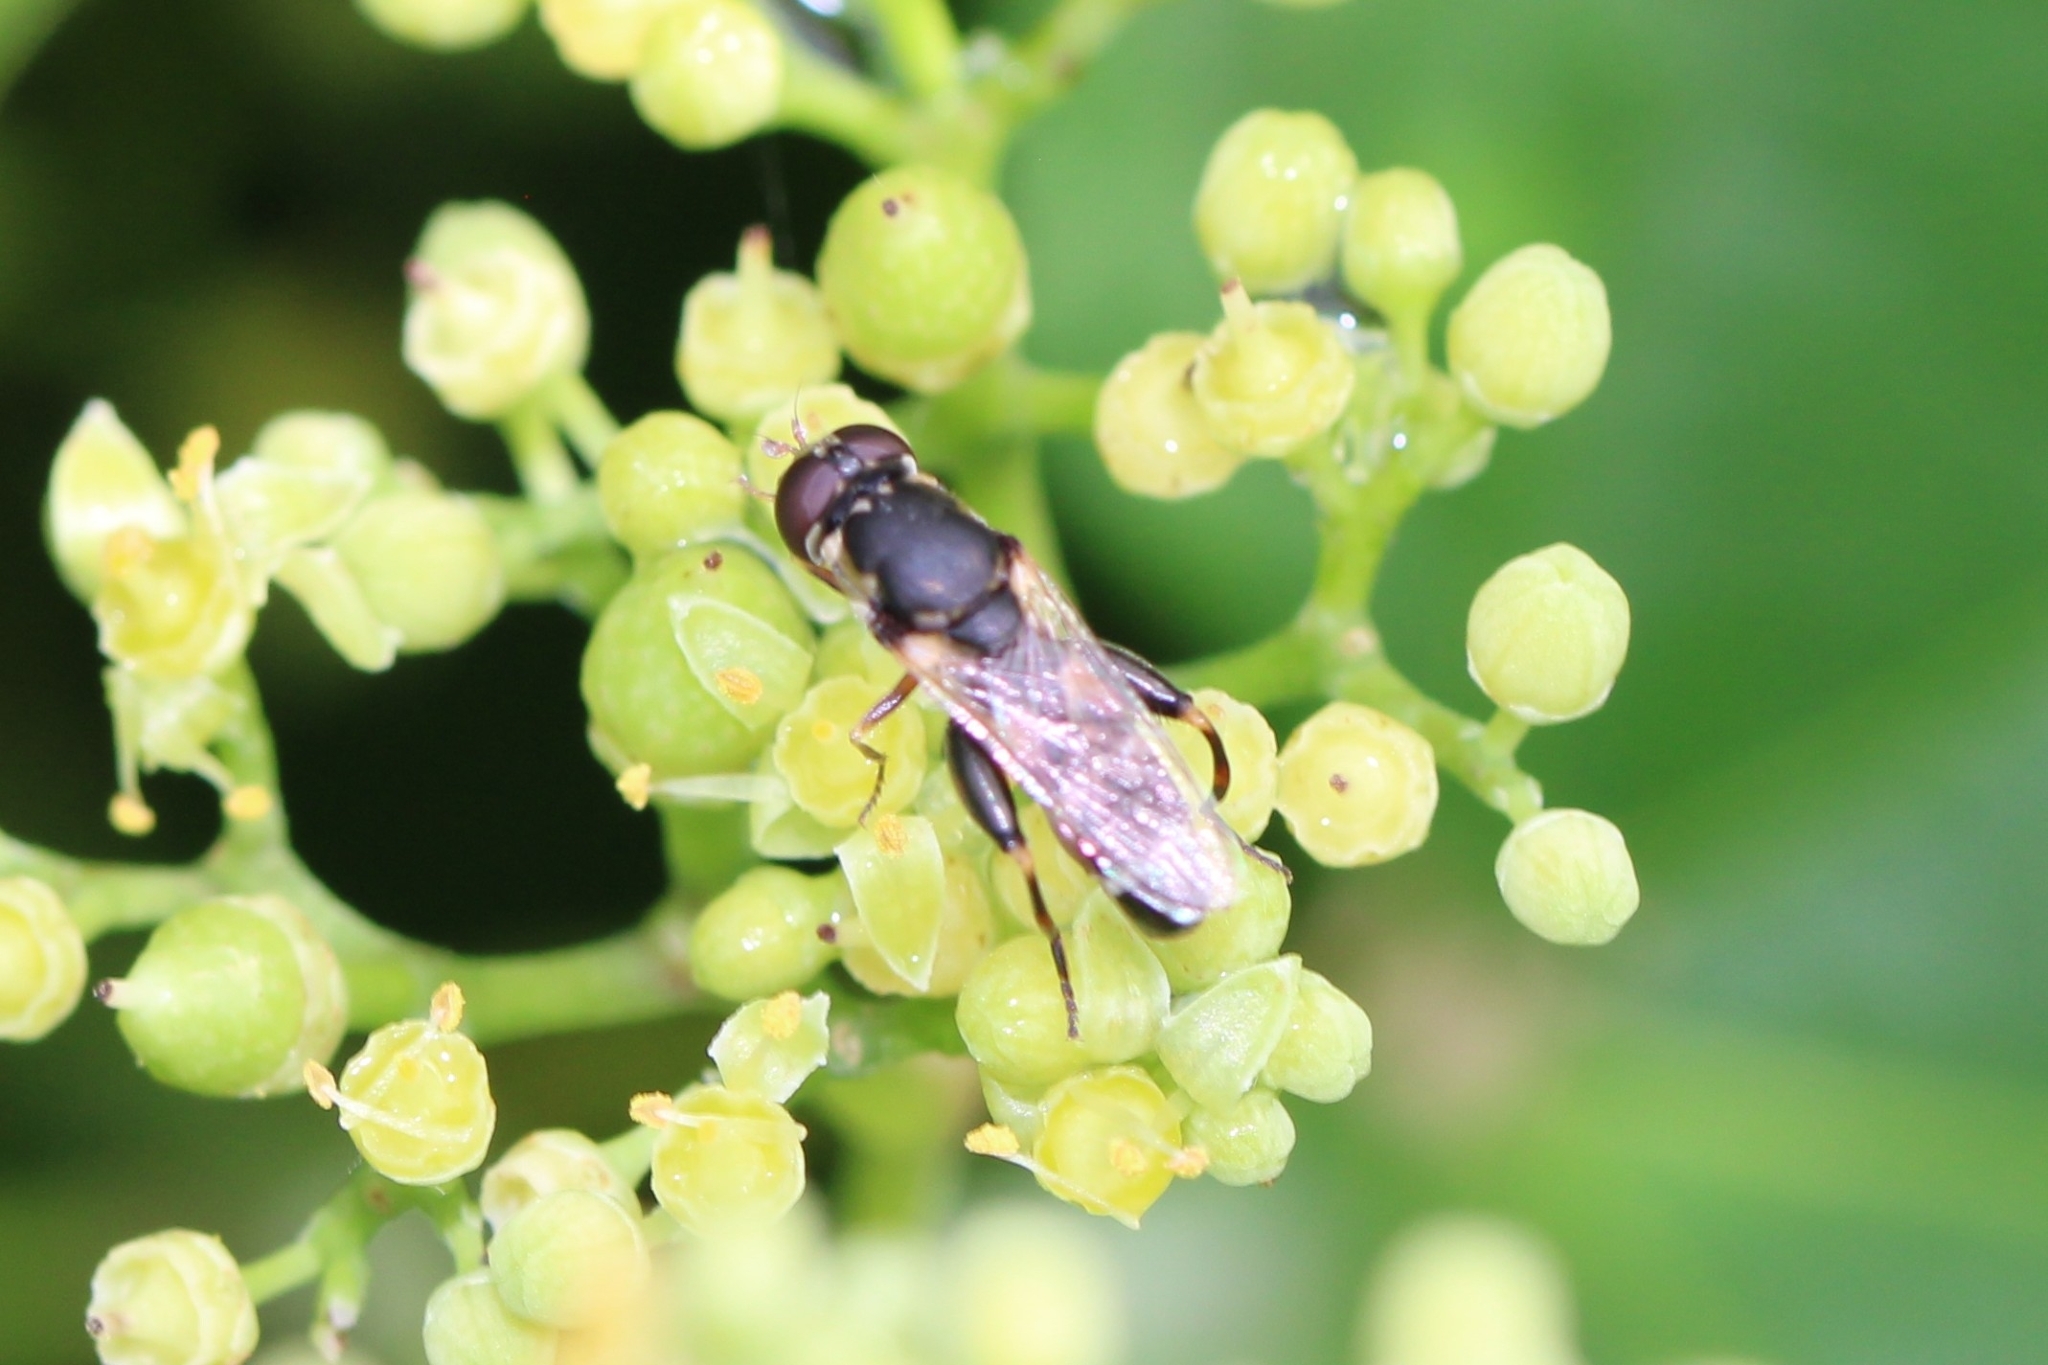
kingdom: Animalia
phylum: Arthropoda
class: Insecta
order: Diptera
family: Syrphidae
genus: Syritta
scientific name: Syritta pipiens
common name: Hover fly
